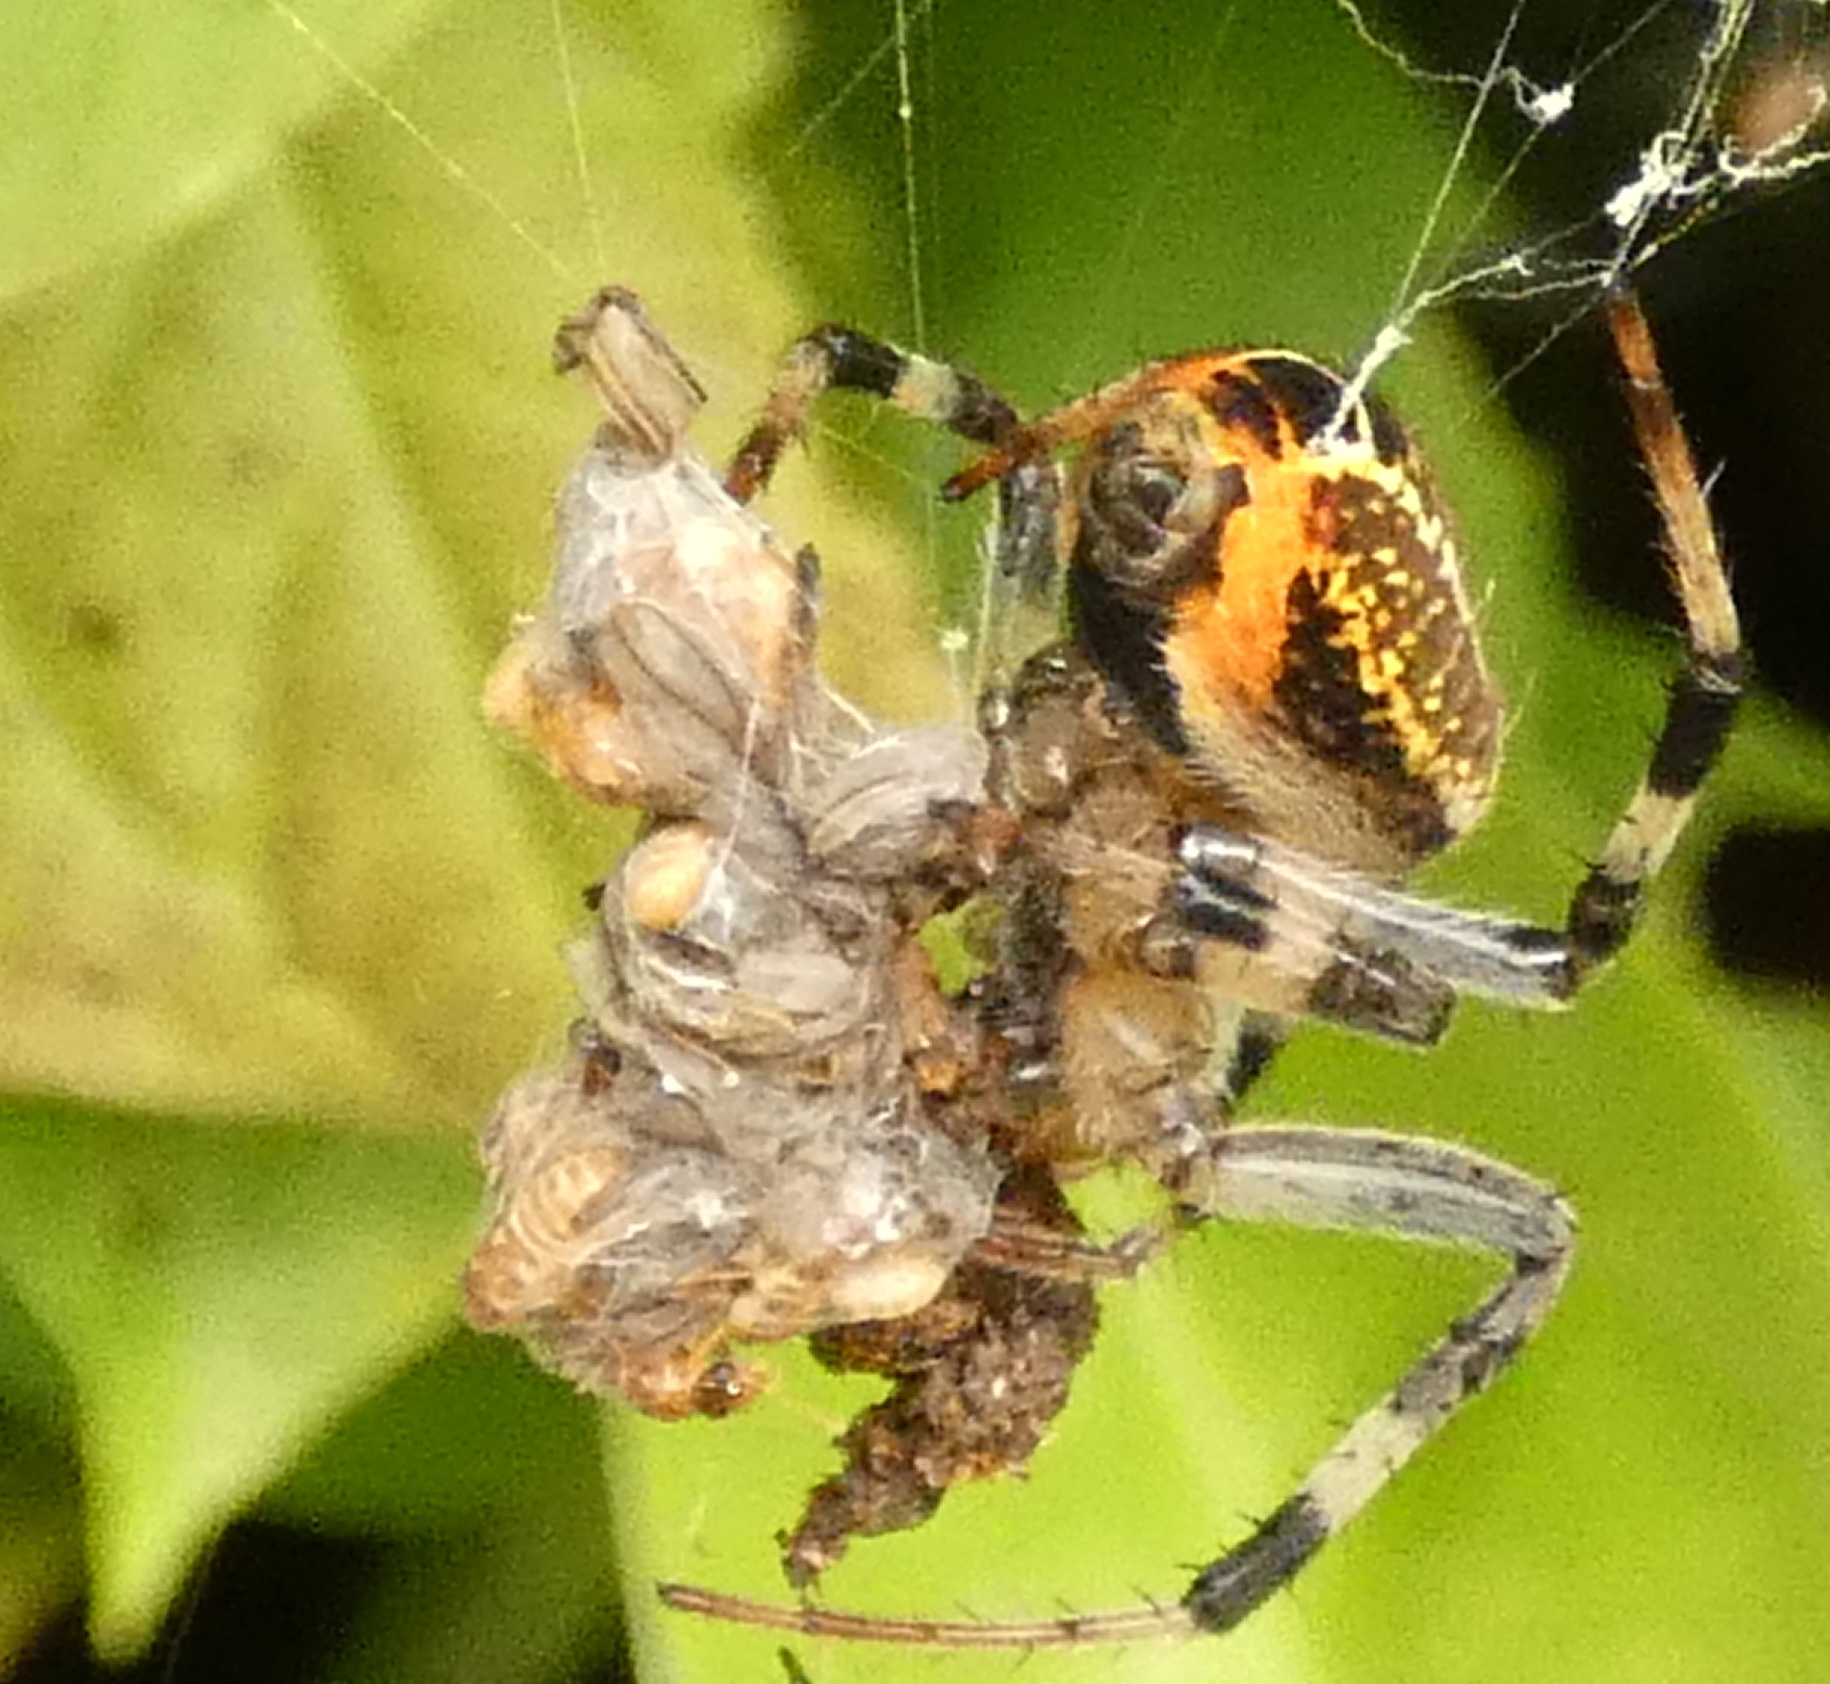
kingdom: Animalia
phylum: Arthropoda
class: Arachnida
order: Araneae
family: Araneidae
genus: Araneus
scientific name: Araneus venatrix
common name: Orb weavers
